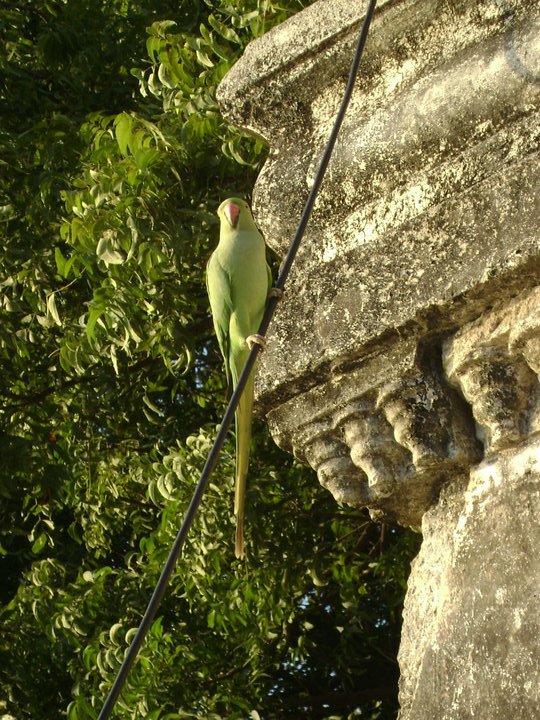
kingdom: Animalia
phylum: Chordata
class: Aves
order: Psittaciformes
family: Psittacidae
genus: Psittacula
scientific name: Psittacula krameri
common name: Rose-ringed parakeet
